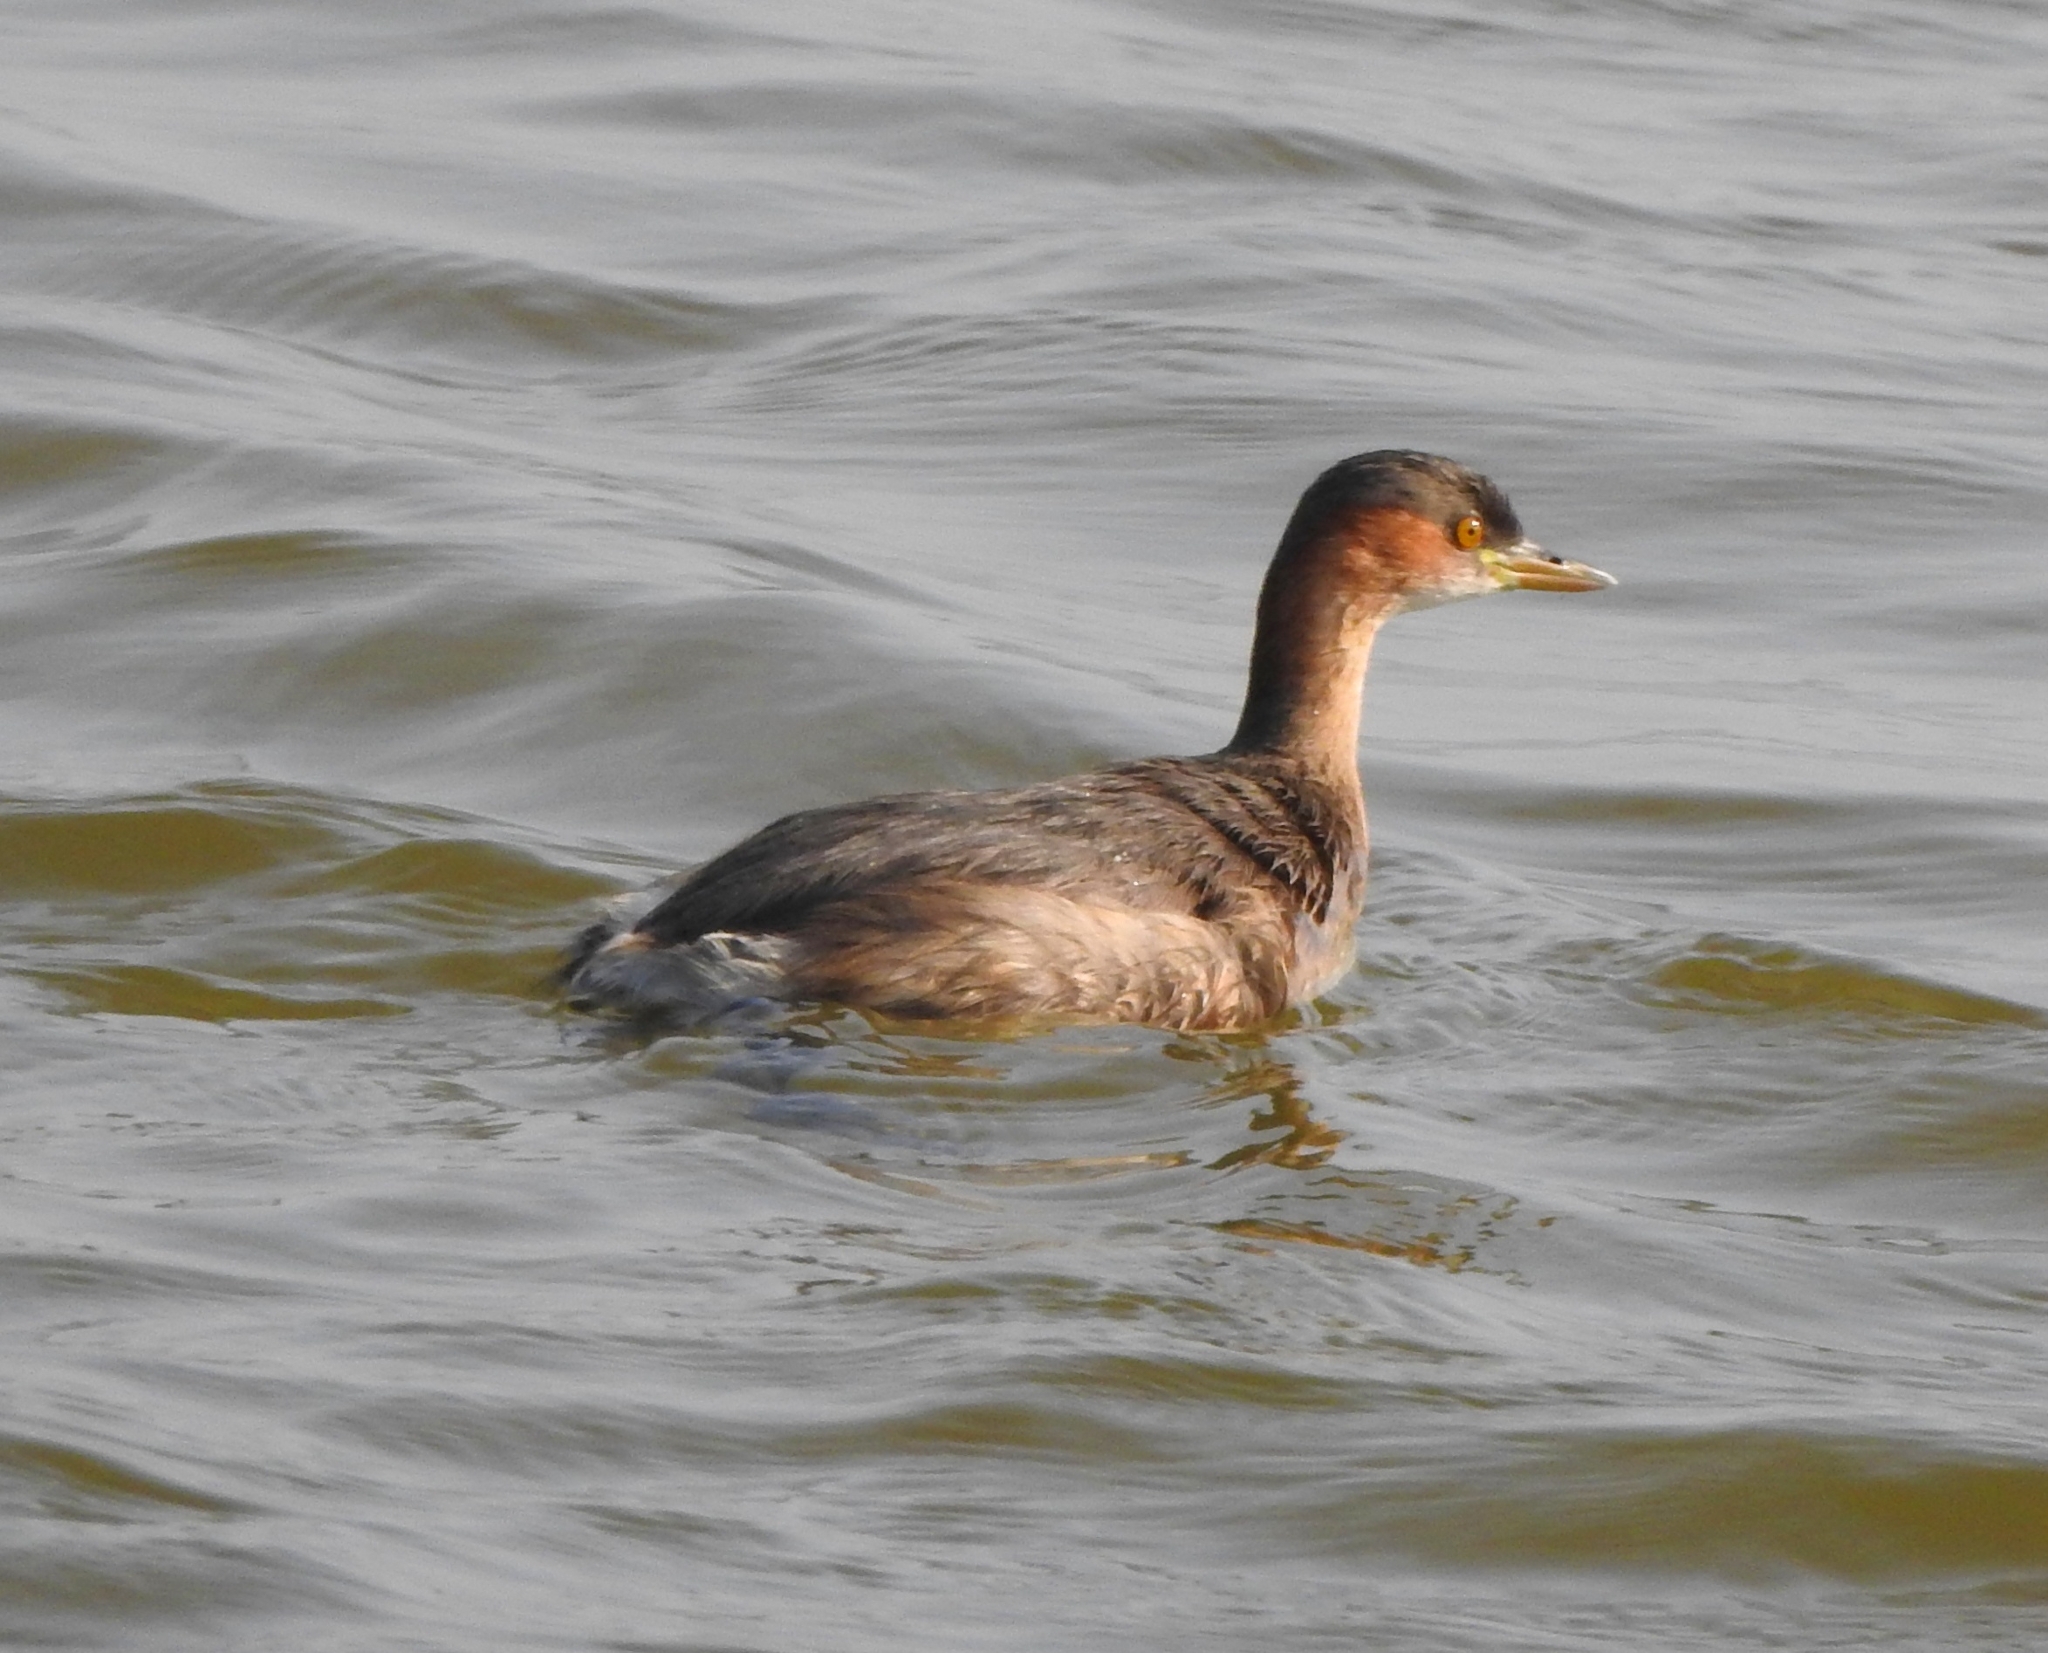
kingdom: Animalia
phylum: Chordata
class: Aves
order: Podicipediformes
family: Podicipedidae
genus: Tachybaptus
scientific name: Tachybaptus ruficollis
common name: Little grebe
